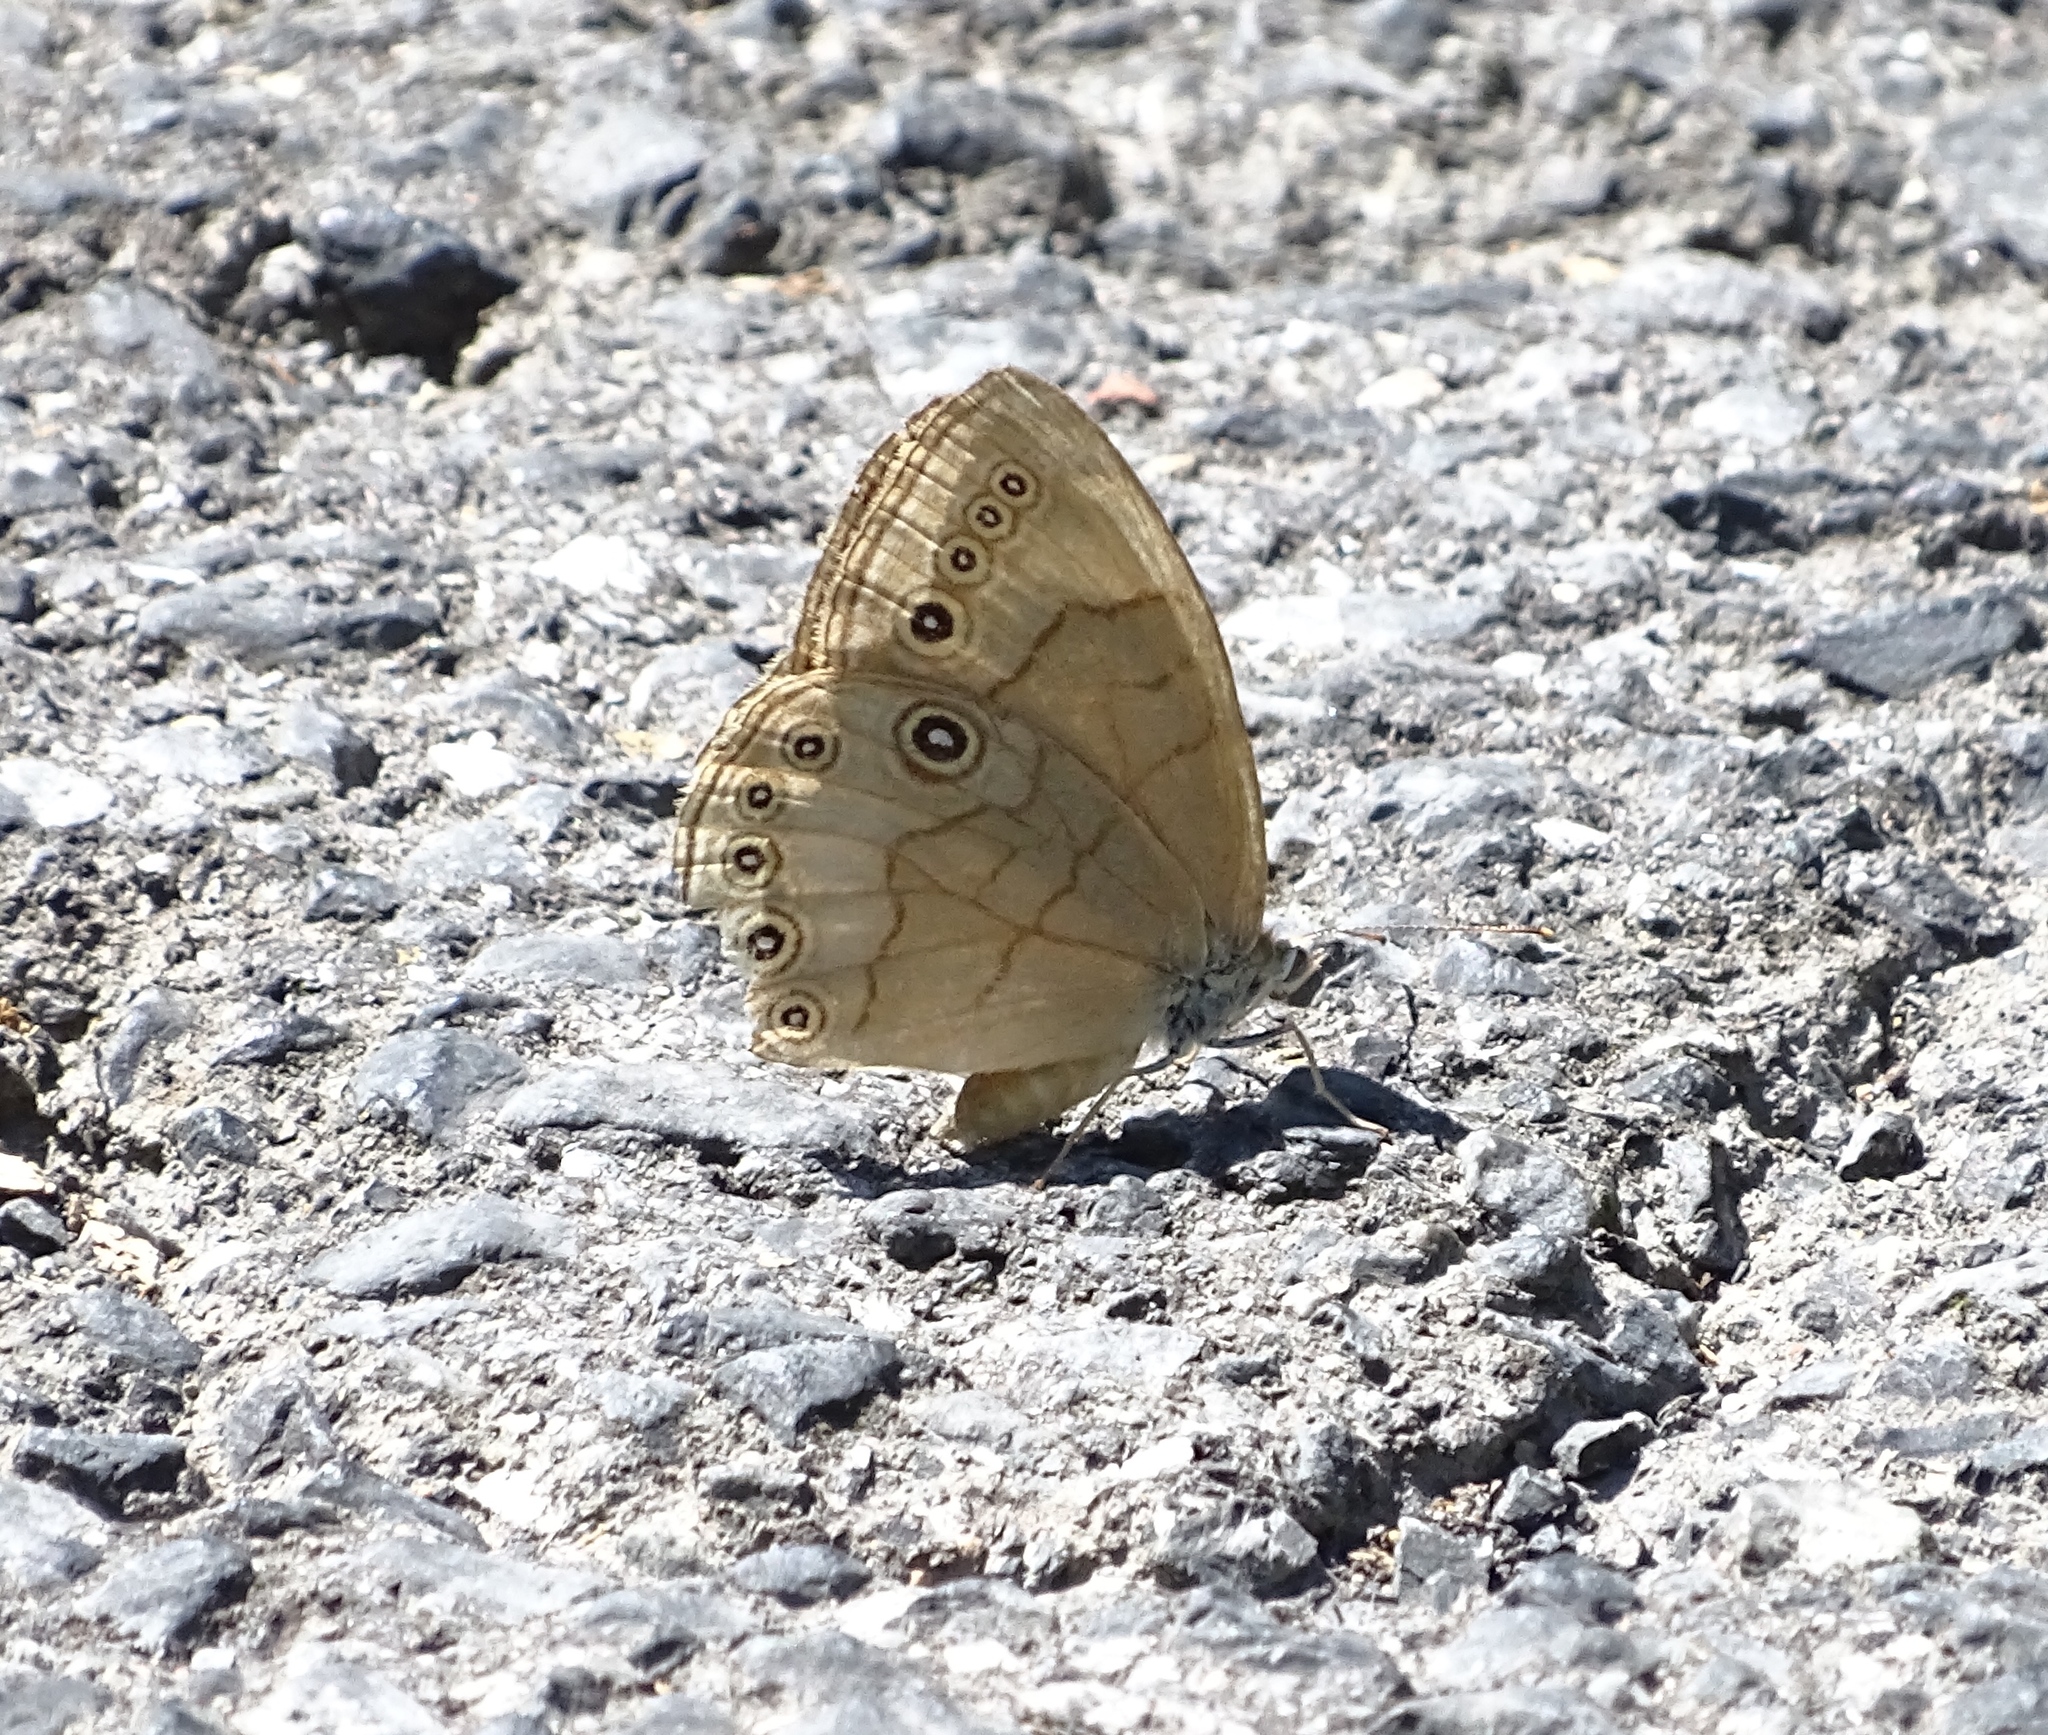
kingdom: Animalia
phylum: Arthropoda
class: Insecta
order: Lepidoptera
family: Nymphalidae
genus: Lethe
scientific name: Lethe eurydice
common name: Eyed brown
